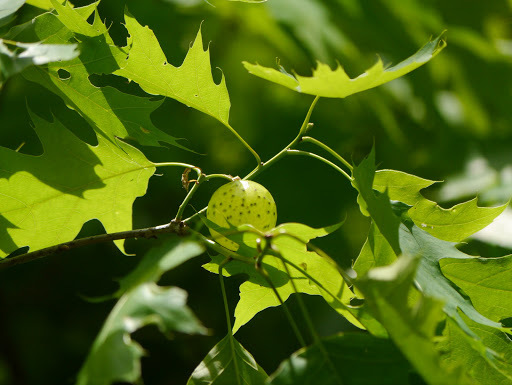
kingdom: Animalia
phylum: Arthropoda
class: Insecta
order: Hymenoptera
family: Cynipidae
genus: Amphibolips
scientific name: Amphibolips
